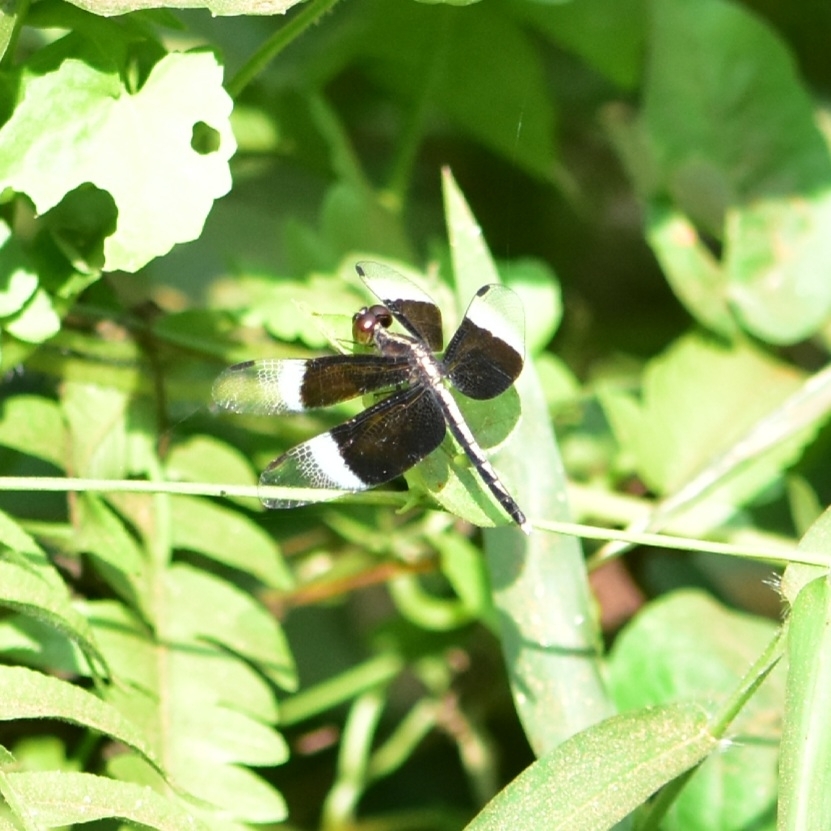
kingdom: Animalia
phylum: Arthropoda
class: Insecta
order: Odonata
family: Libellulidae
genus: Neurothemis
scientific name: Neurothemis tullia
